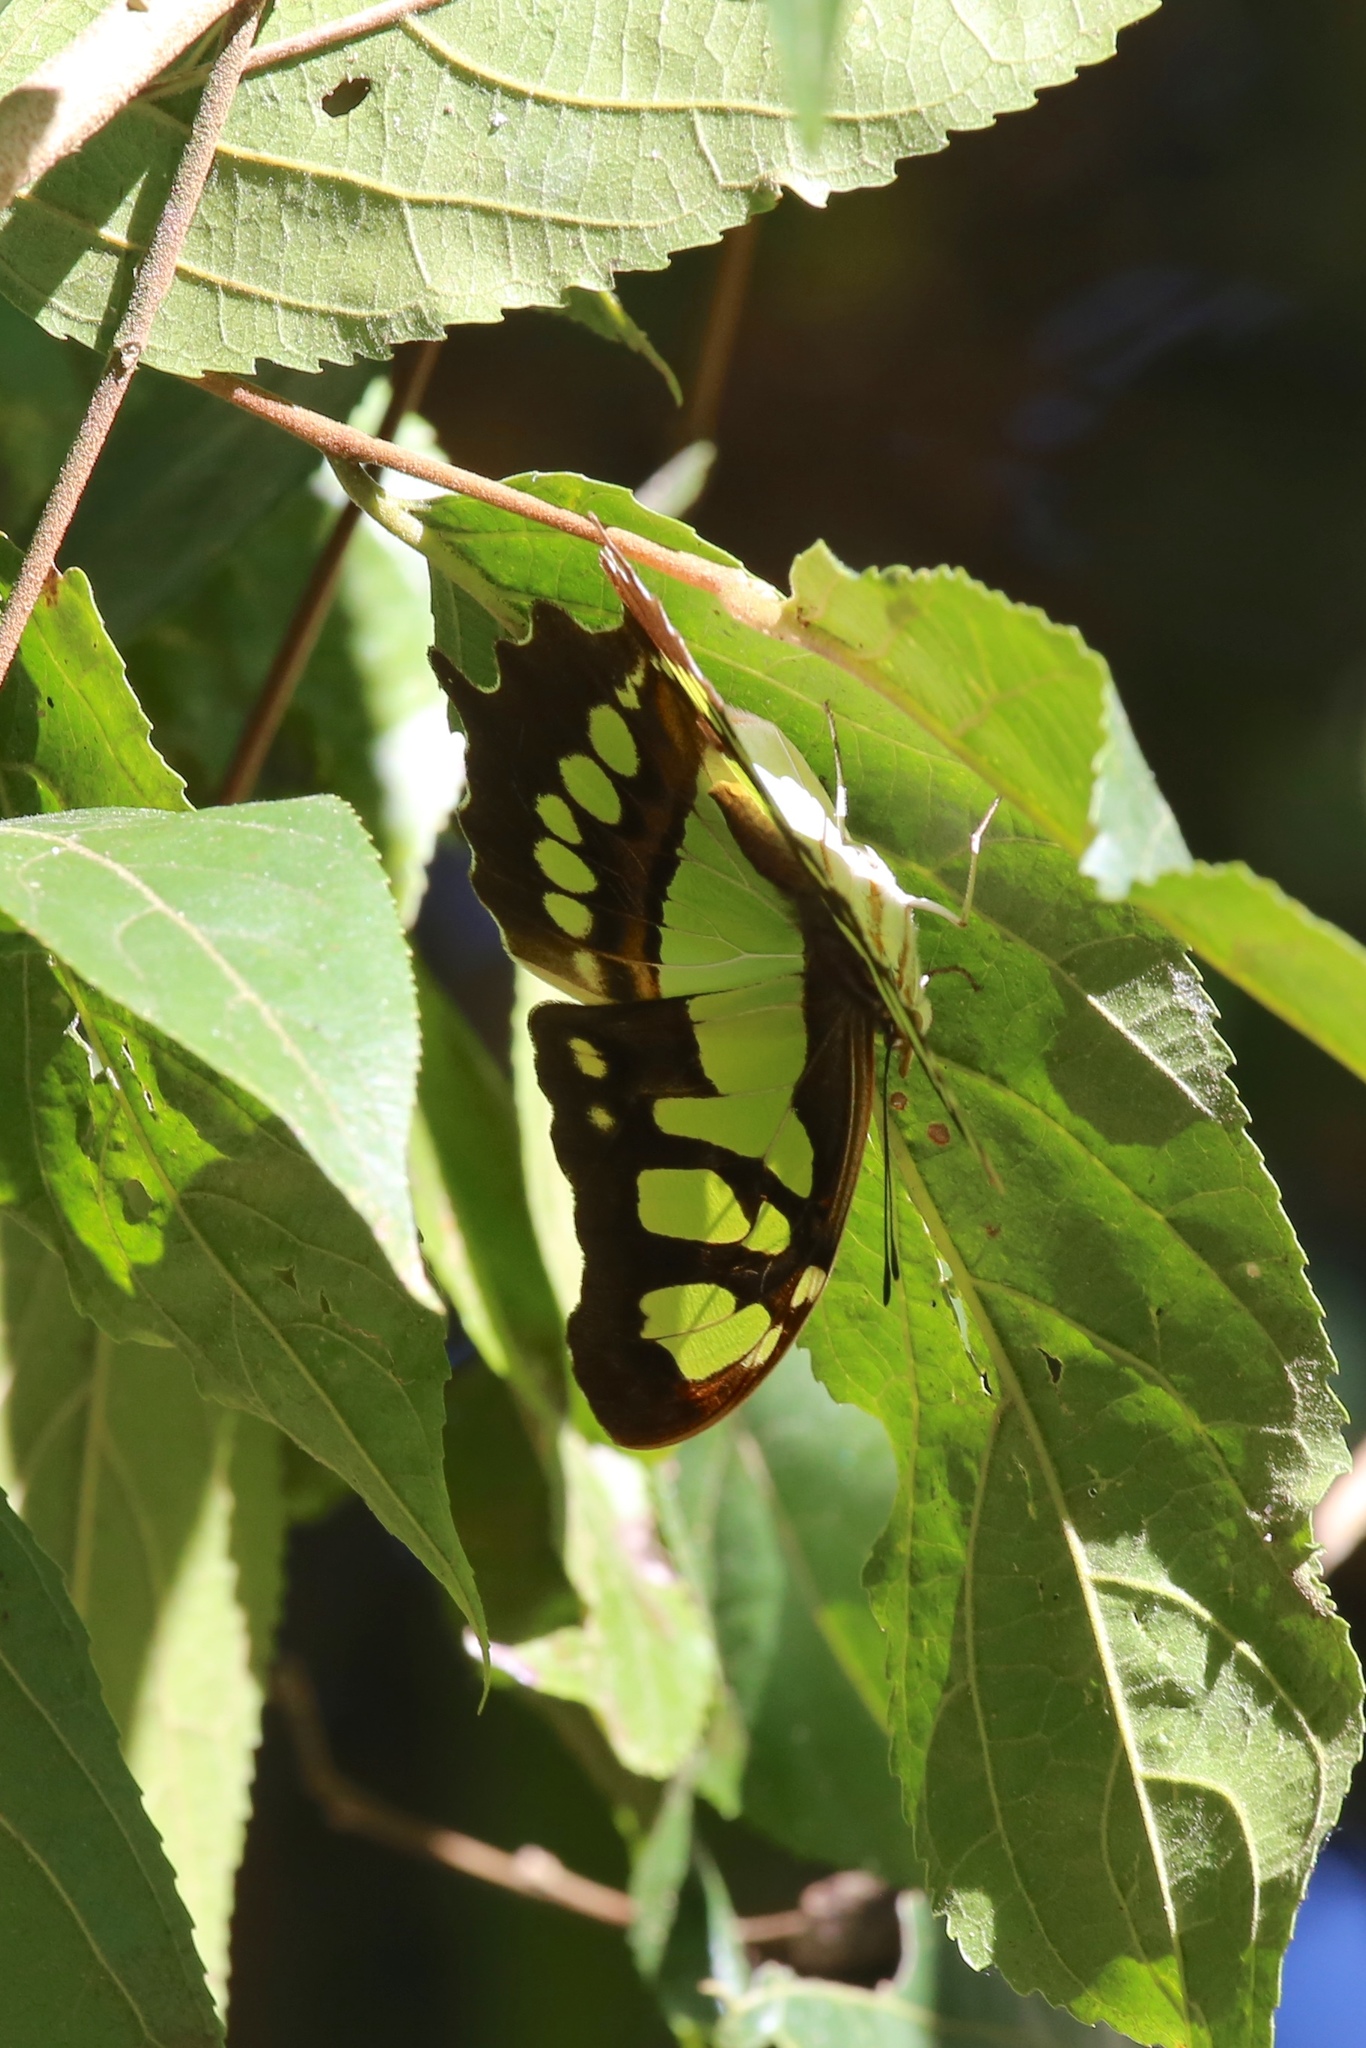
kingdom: Animalia
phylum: Arthropoda
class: Insecta
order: Lepidoptera
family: Nymphalidae
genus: Siproeta
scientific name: Siproeta stelenes
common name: Malachite
